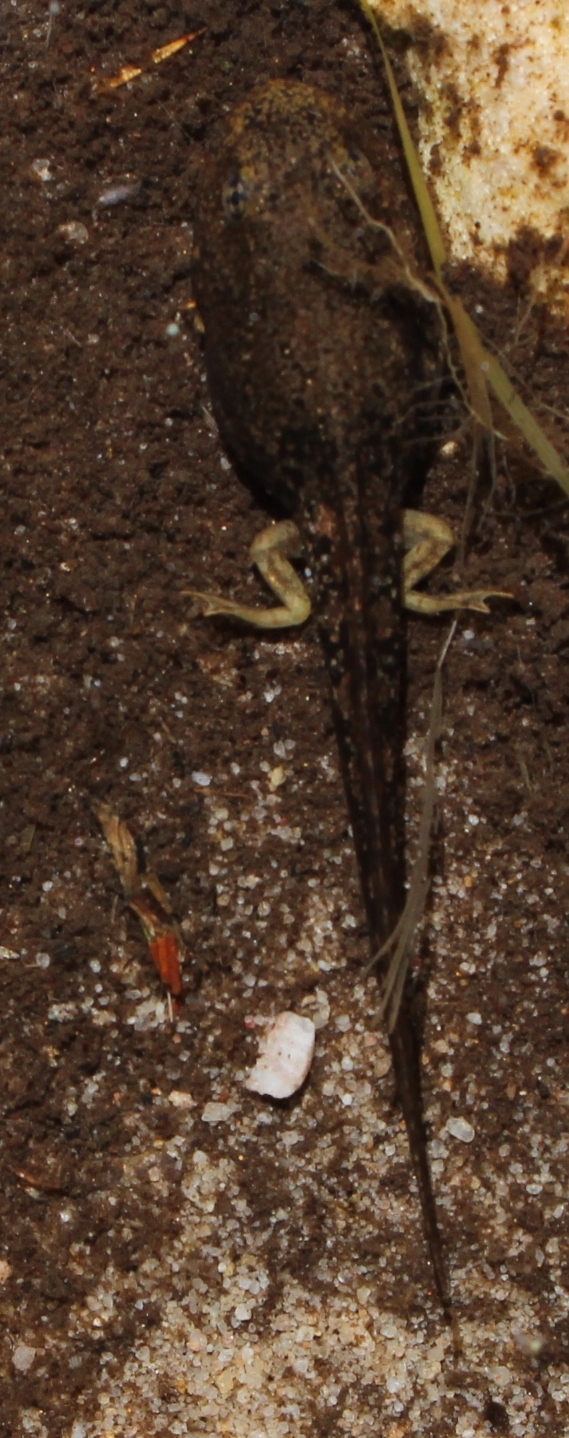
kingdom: Animalia
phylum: Chordata
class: Amphibia
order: Anura
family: Pyxicephalidae
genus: Amietia
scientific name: Amietia fuscigula
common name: Cape rana
